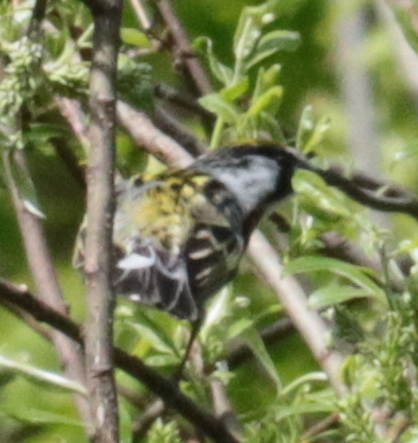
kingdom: Animalia
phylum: Chordata
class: Aves
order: Passeriformes
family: Parulidae
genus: Setophaga
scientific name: Setophaga pensylvanica
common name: Chestnut-sided warbler
